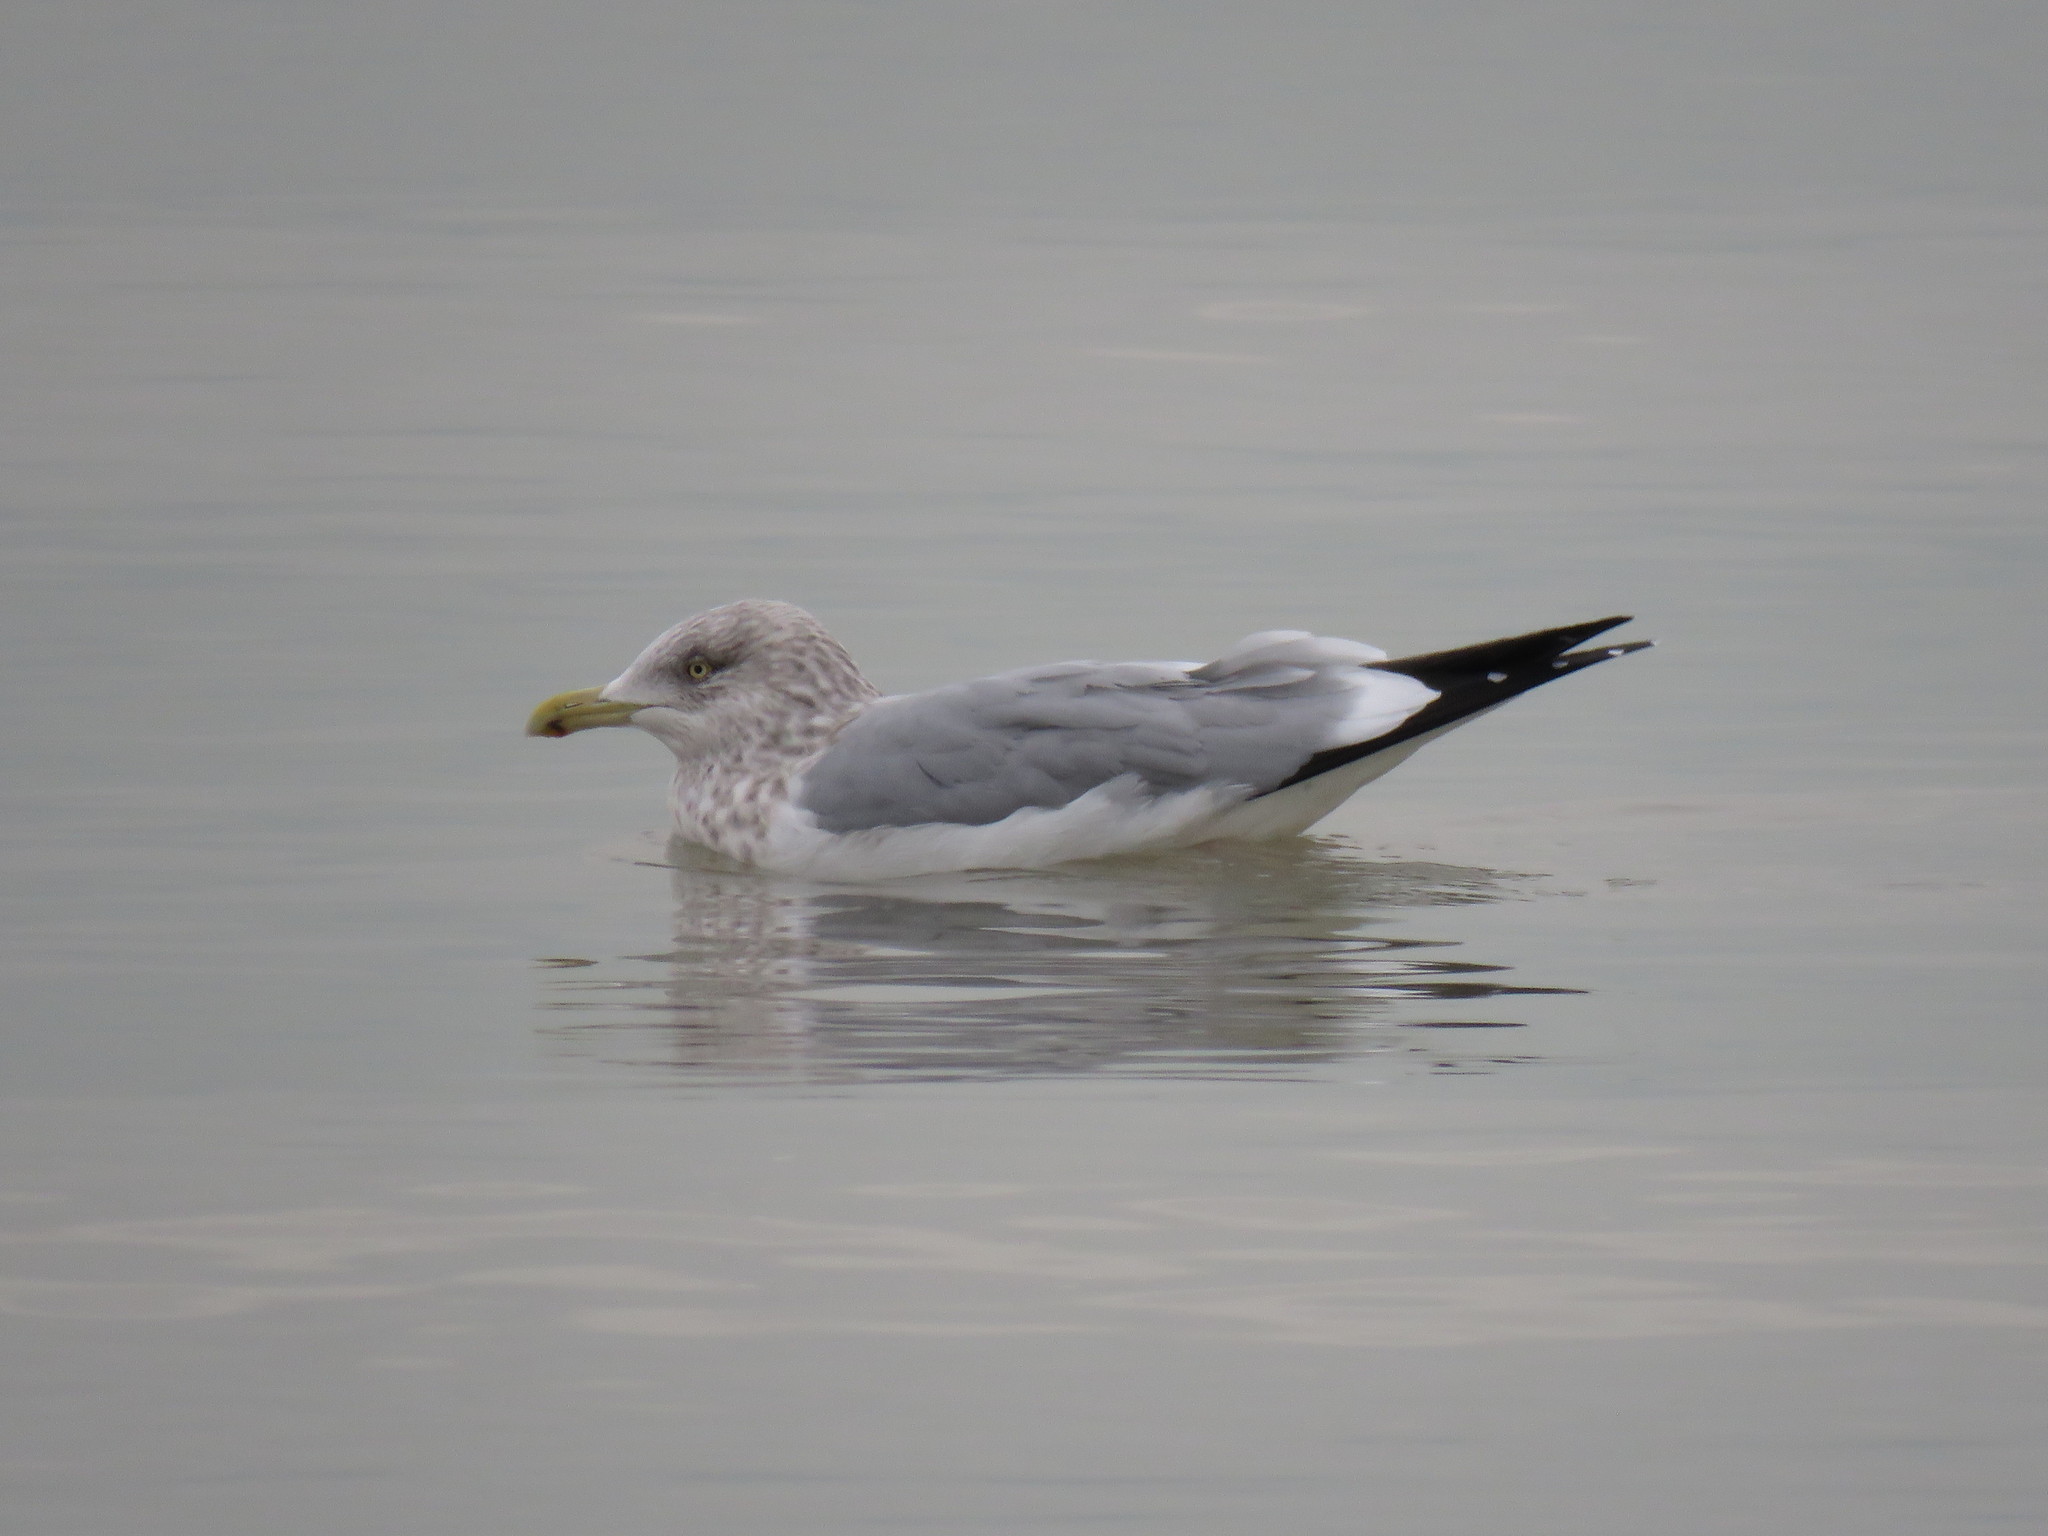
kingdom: Animalia
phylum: Chordata
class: Aves
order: Charadriiformes
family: Laridae
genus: Larus
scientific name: Larus argentatus
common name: Herring gull
